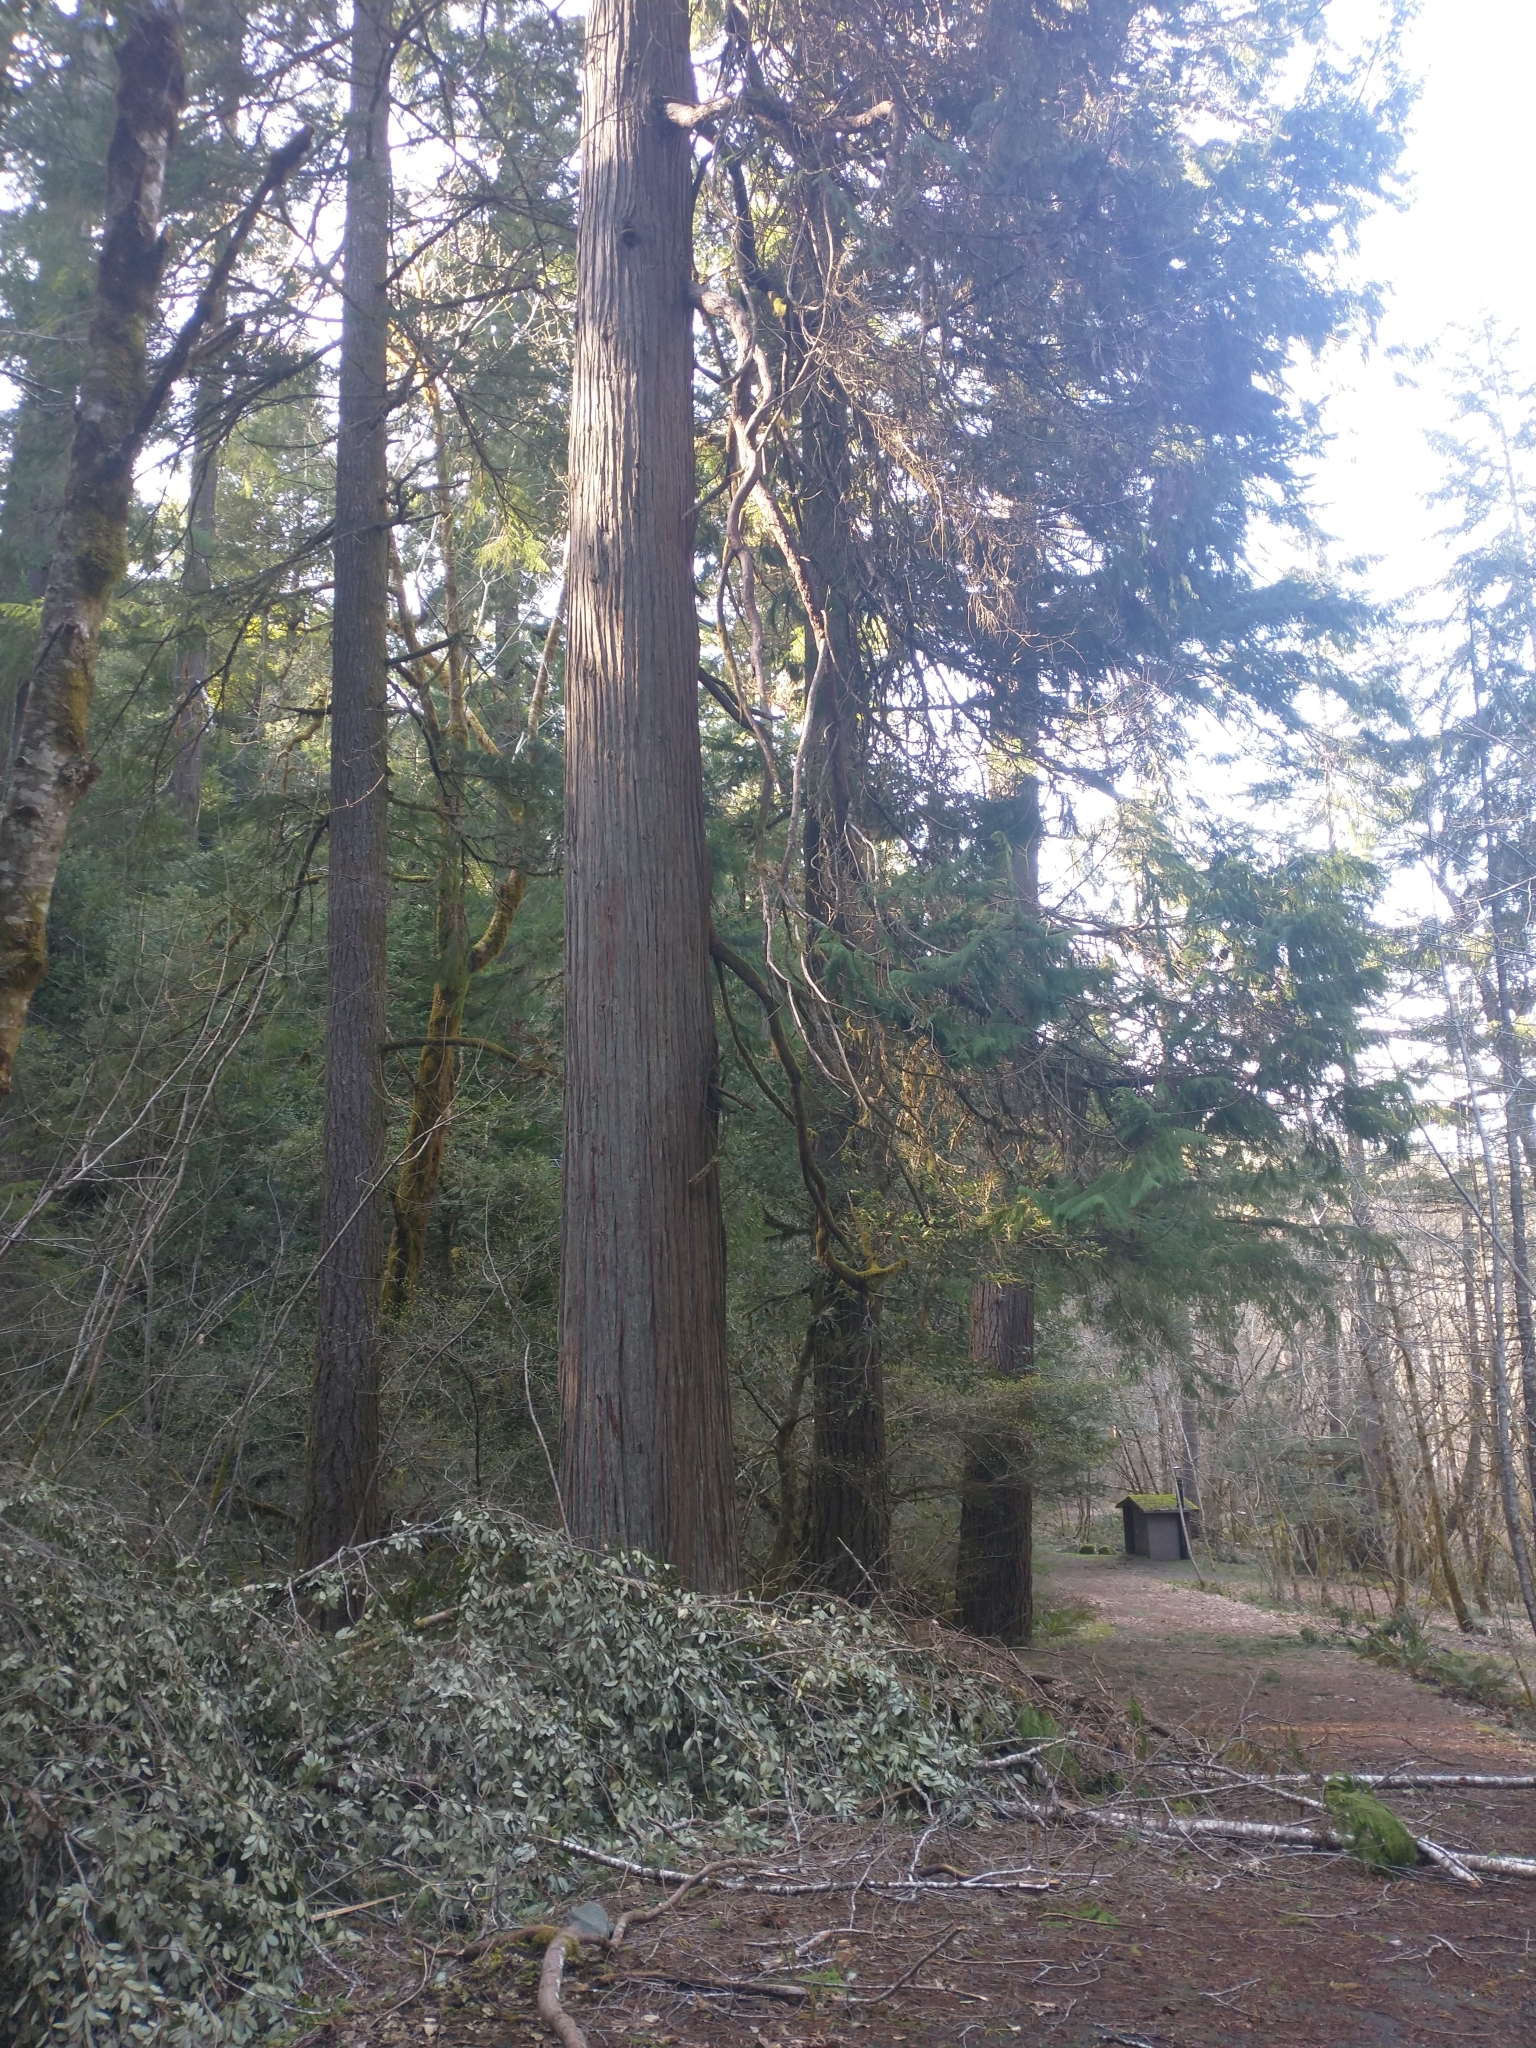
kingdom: Plantae
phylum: Tracheophyta
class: Pinopsida
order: Pinales
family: Cupressaceae
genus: Chamaecyparis
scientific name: Chamaecyparis lawsoniana
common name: Lawson's cypress
